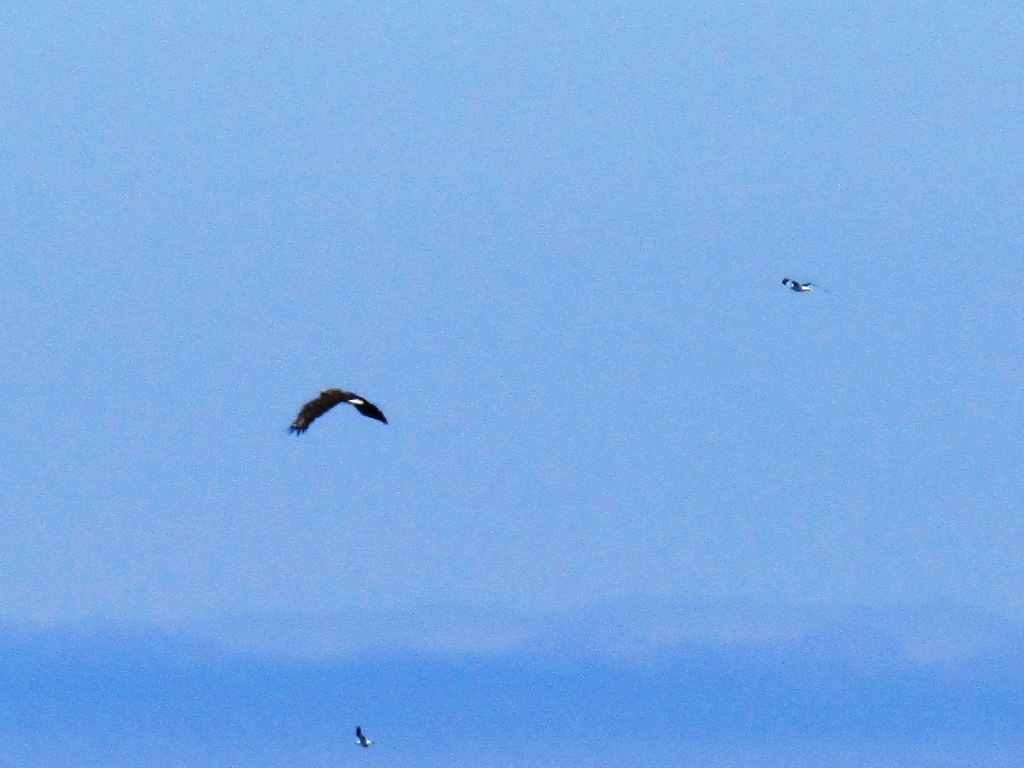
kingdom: Animalia
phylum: Chordata
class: Aves
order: Accipitriformes
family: Accipitridae
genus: Haliaeetus
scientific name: Haliaeetus albicilla
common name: White-tailed eagle
